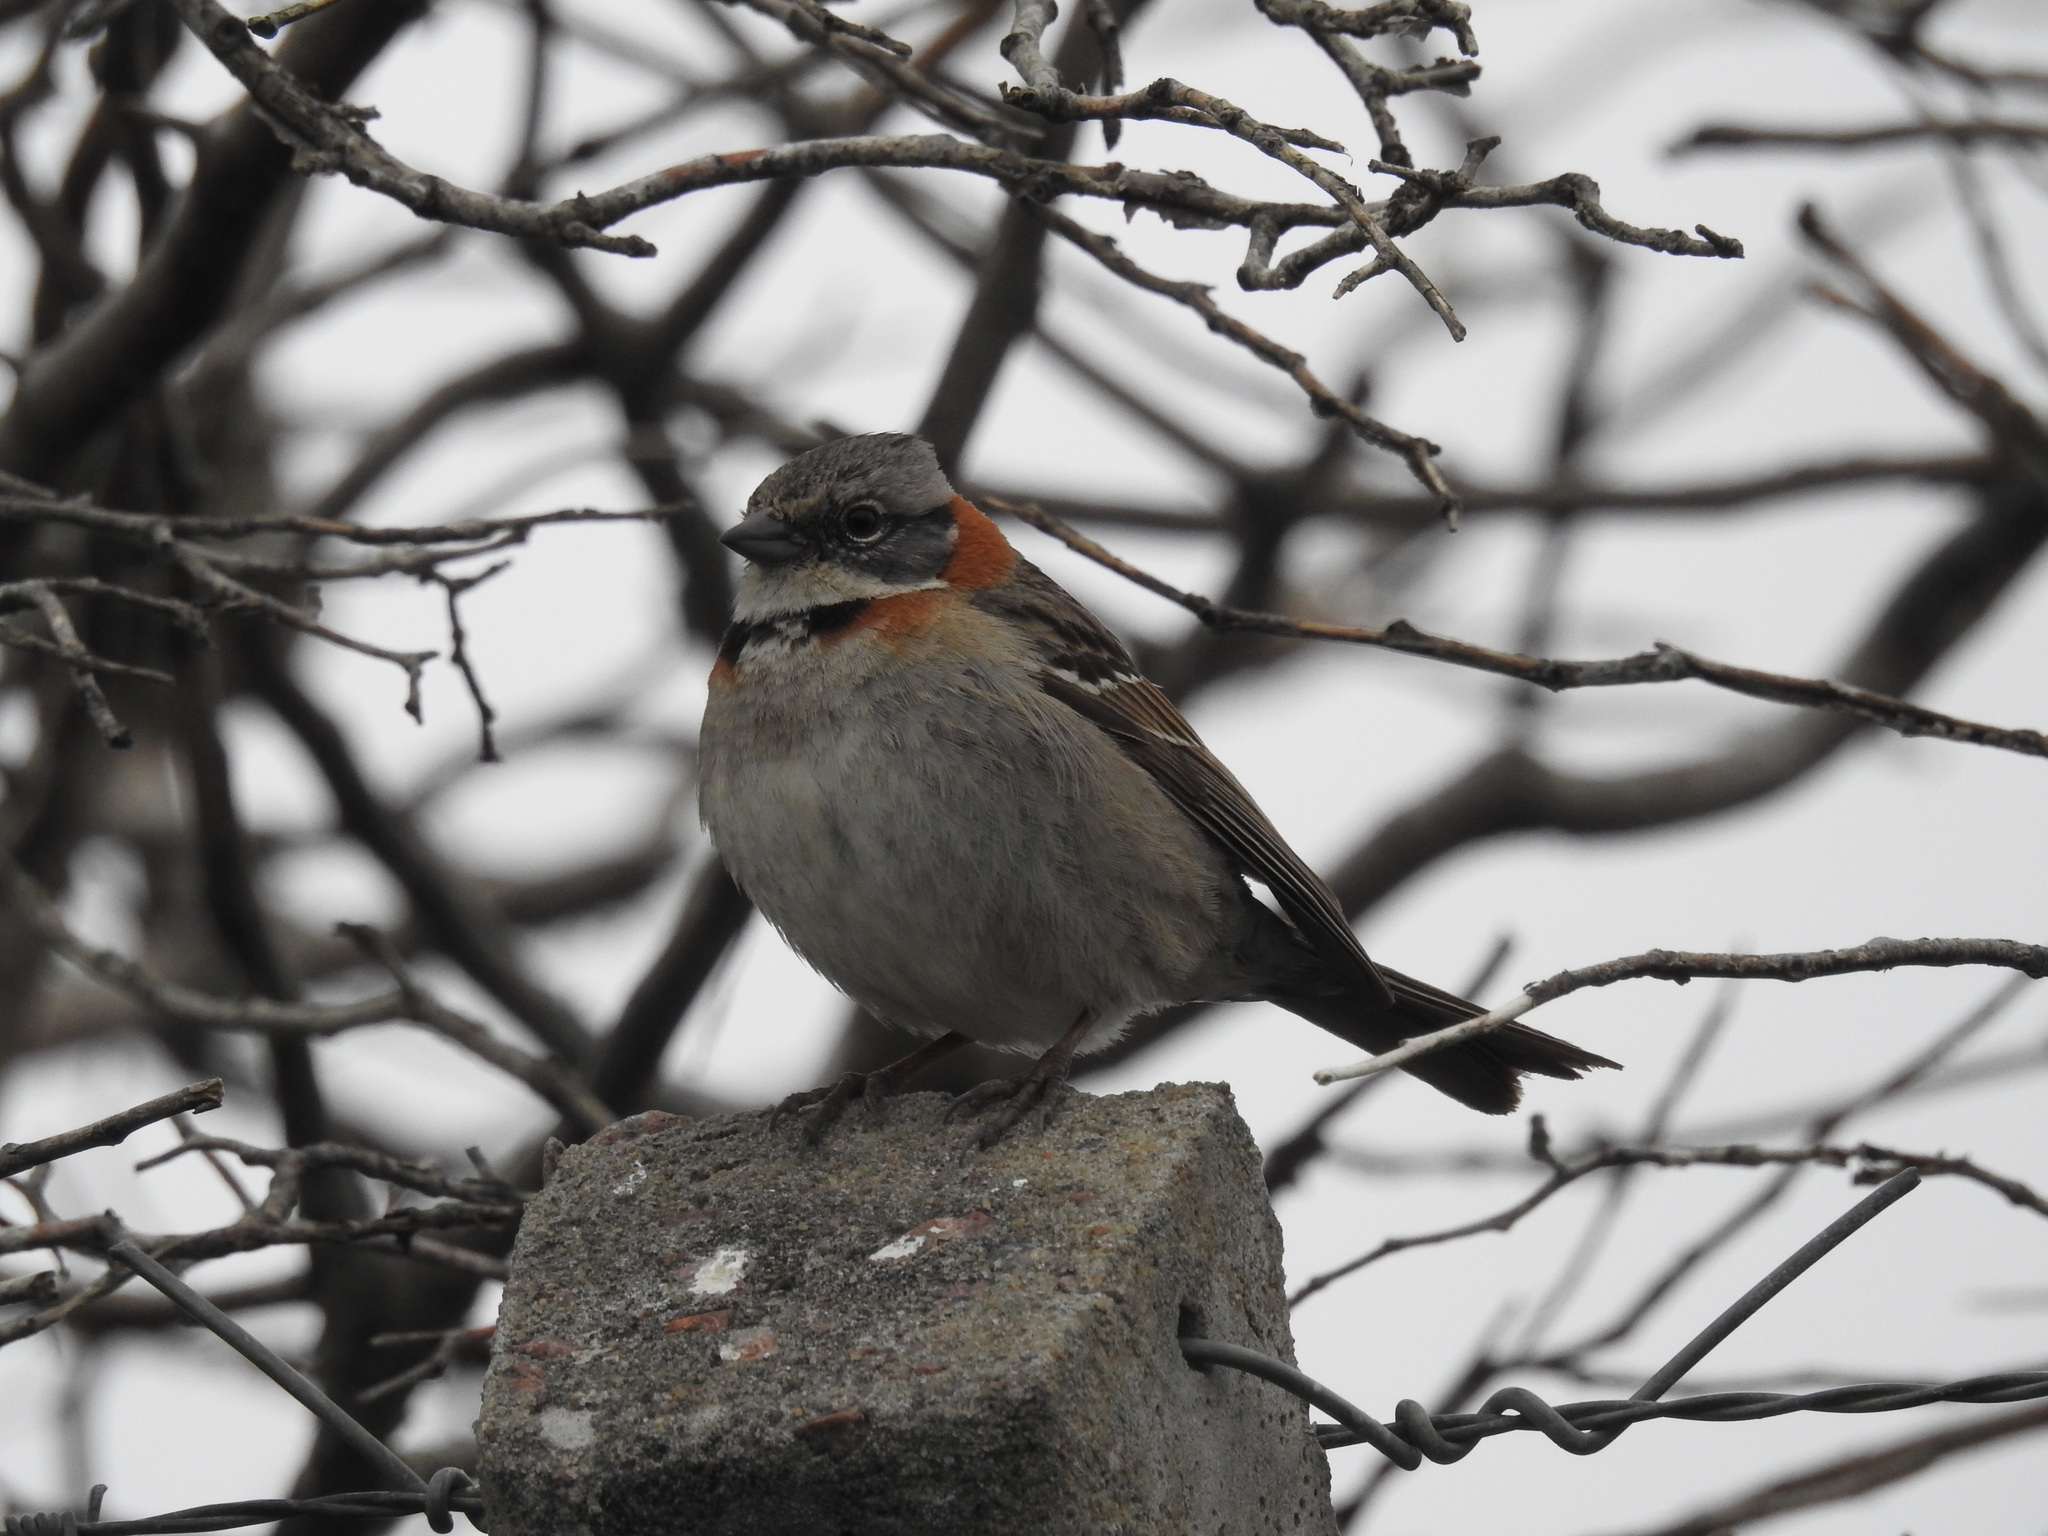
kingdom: Animalia
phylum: Chordata
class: Aves
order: Passeriformes
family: Passerellidae
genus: Zonotrichia
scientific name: Zonotrichia capensis
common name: Rufous-collared sparrow
